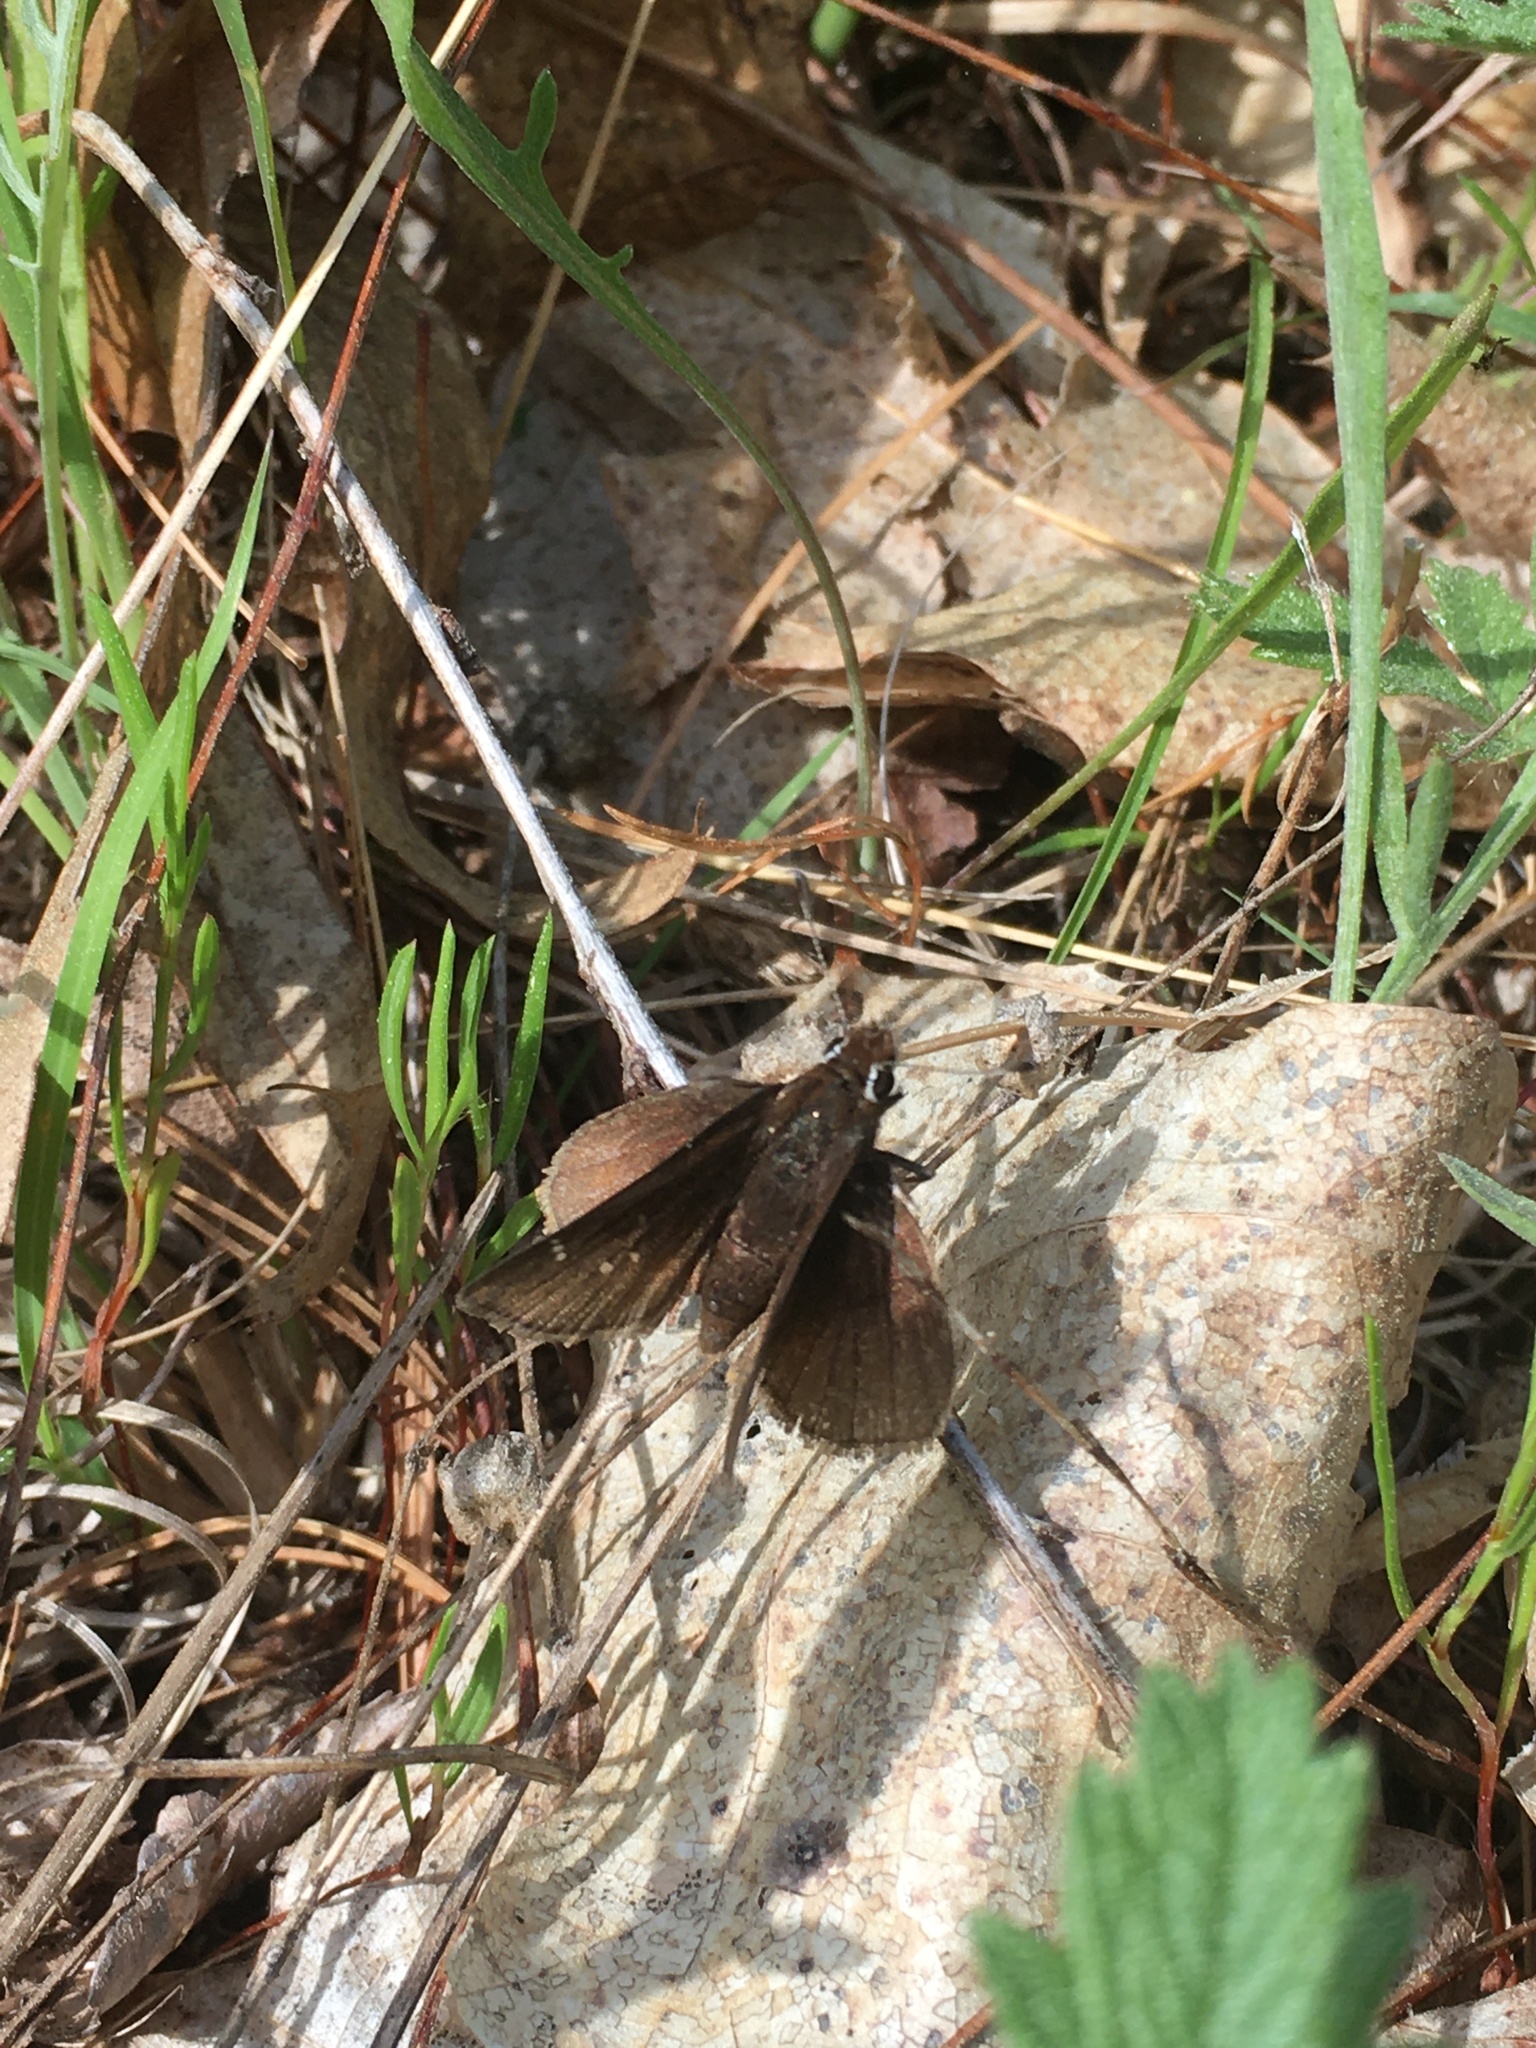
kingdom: Animalia
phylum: Arthropoda
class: Insecta
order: Lepidoptera
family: Hesperiidae
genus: Atrytonopsis
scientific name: Atrytonopsis hianna
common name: Dusted skipper
